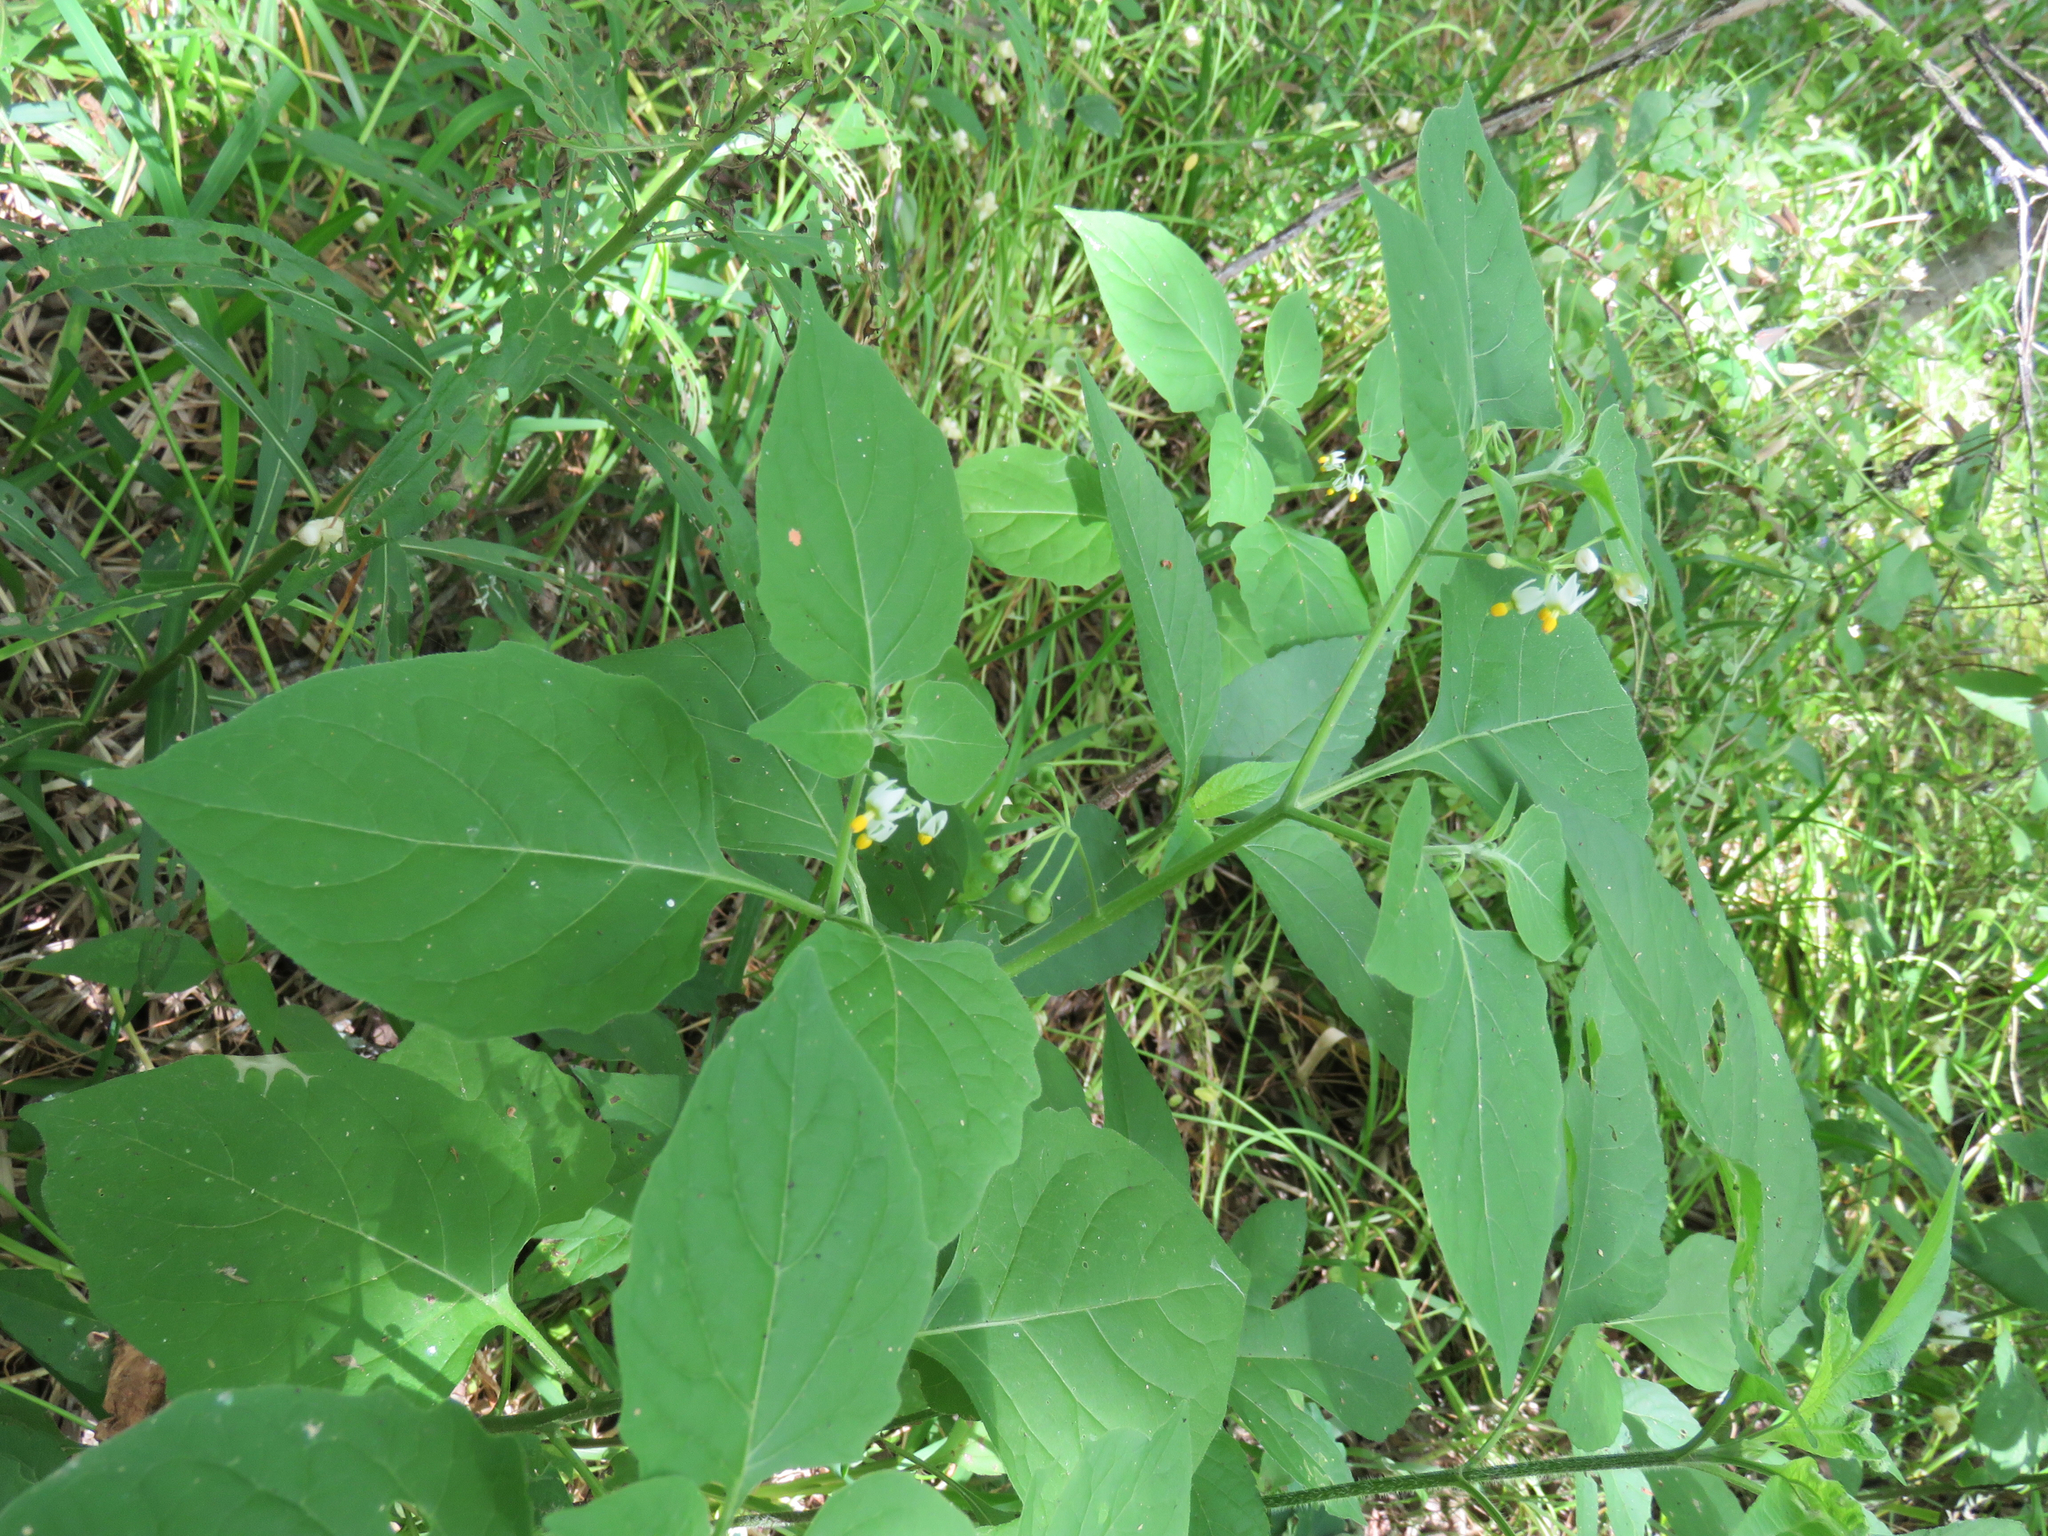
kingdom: Plantae
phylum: Tracheophyta
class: Magnoliopsida
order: Solanales
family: Solanaceae
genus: Solanum
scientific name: Solanum americanum
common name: American black nightshade
